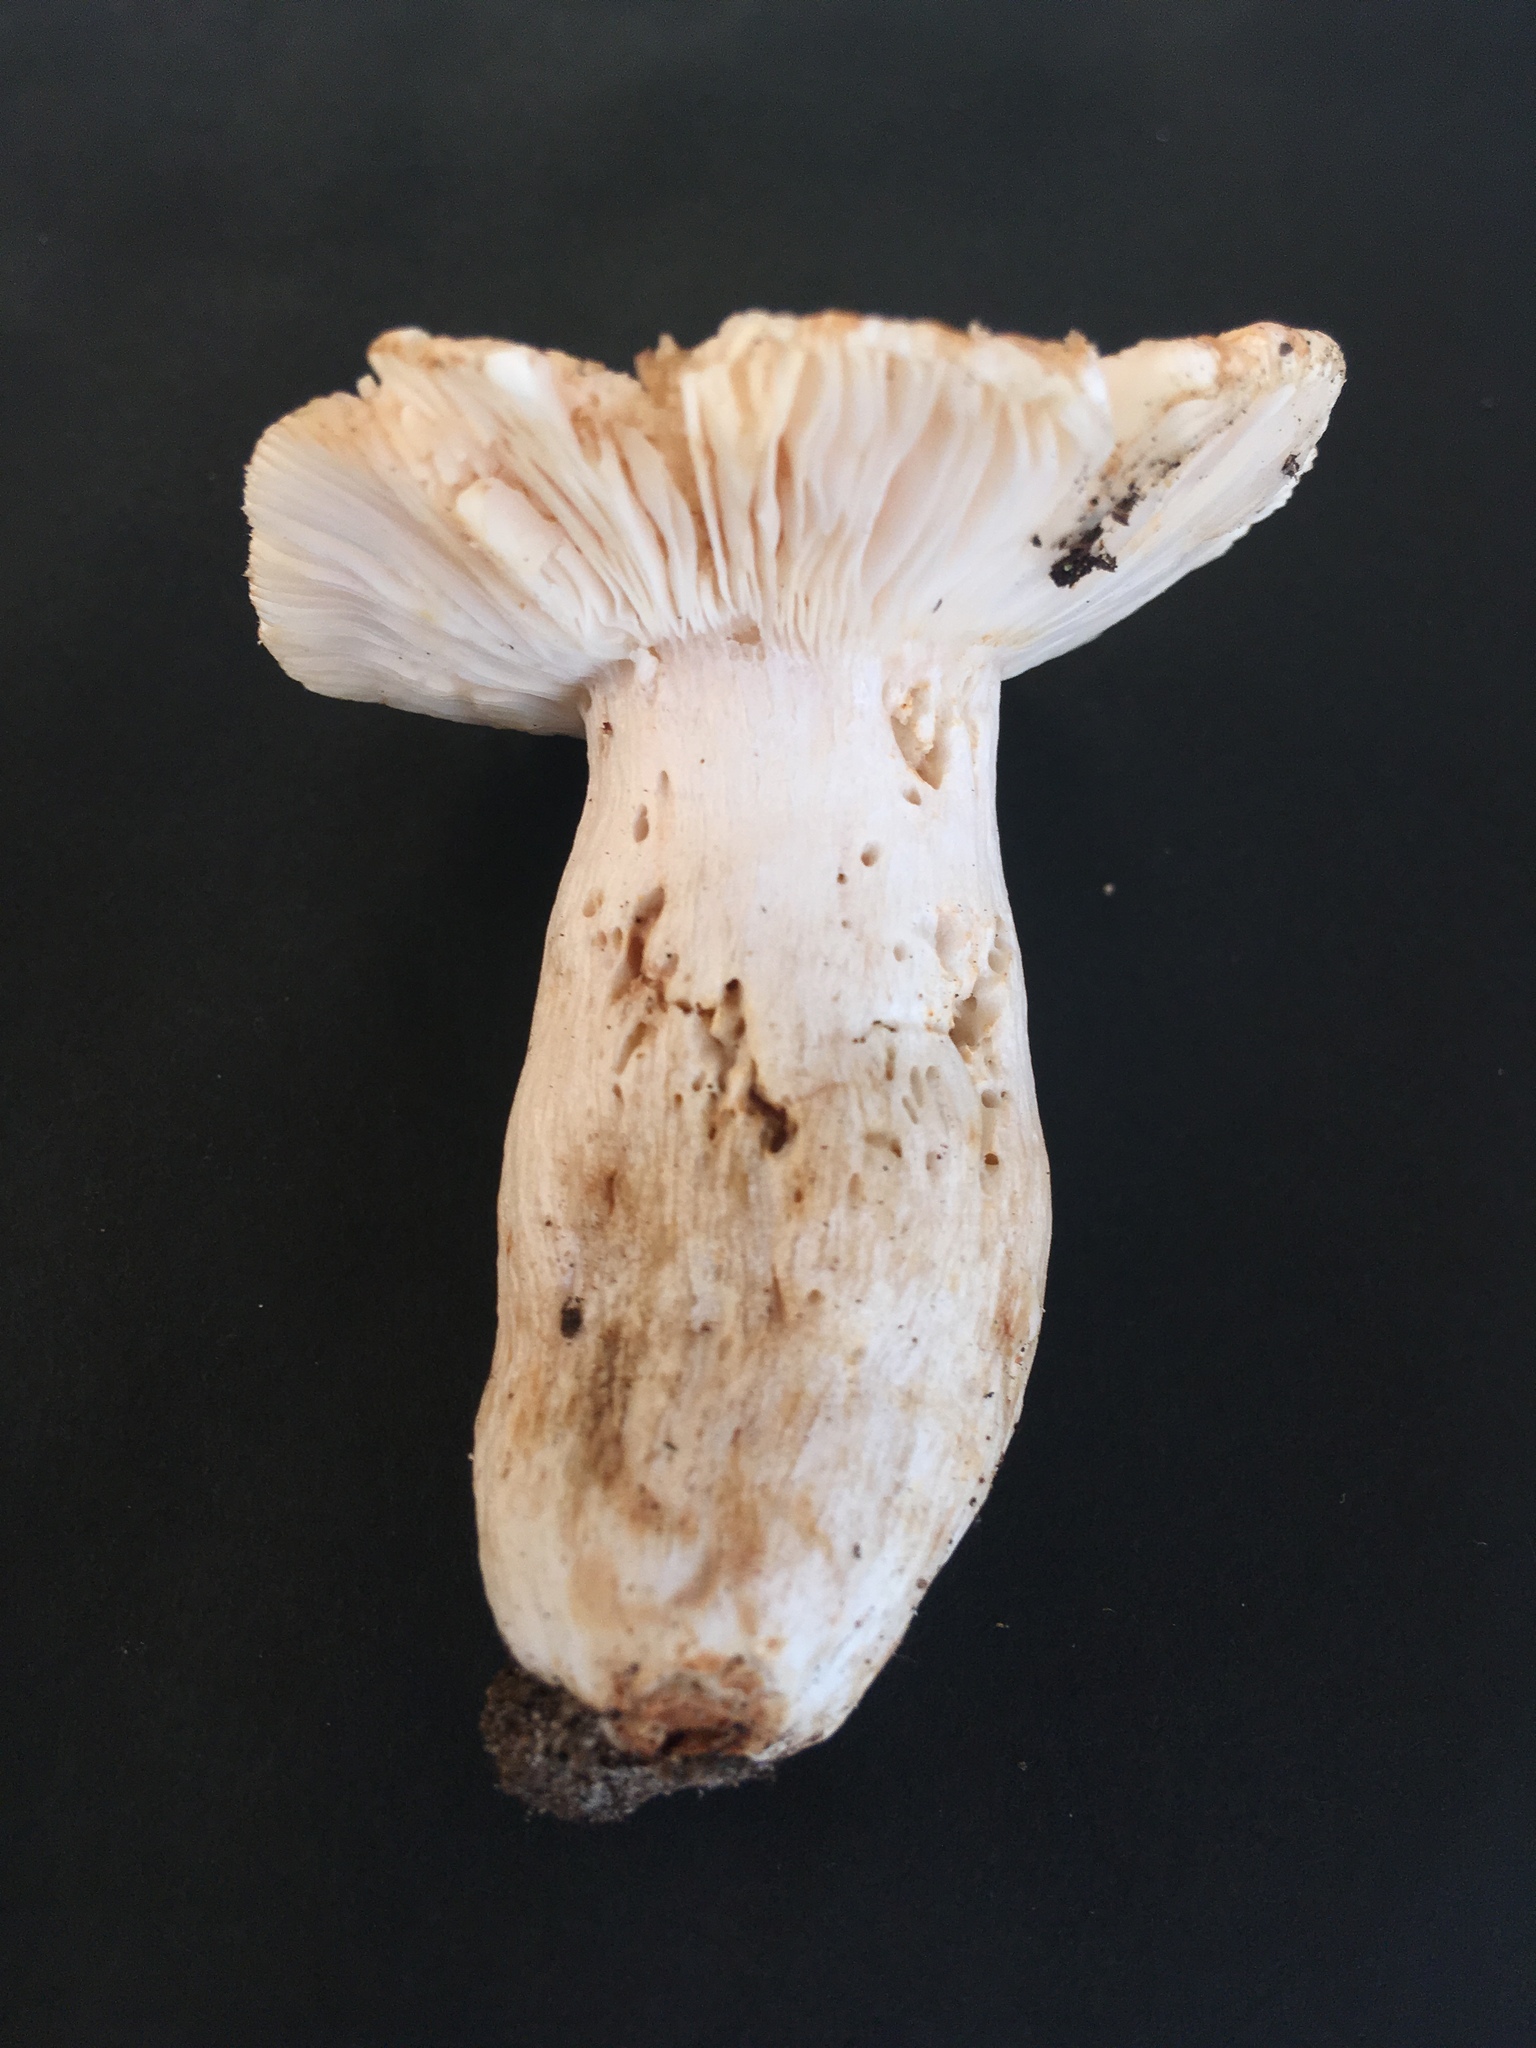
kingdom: Fungi
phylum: Basidiomycota
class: Agaricomycetes
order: Russulales
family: Russulaceae
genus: Russula
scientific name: Russula crustosa
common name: Green quilt russula
